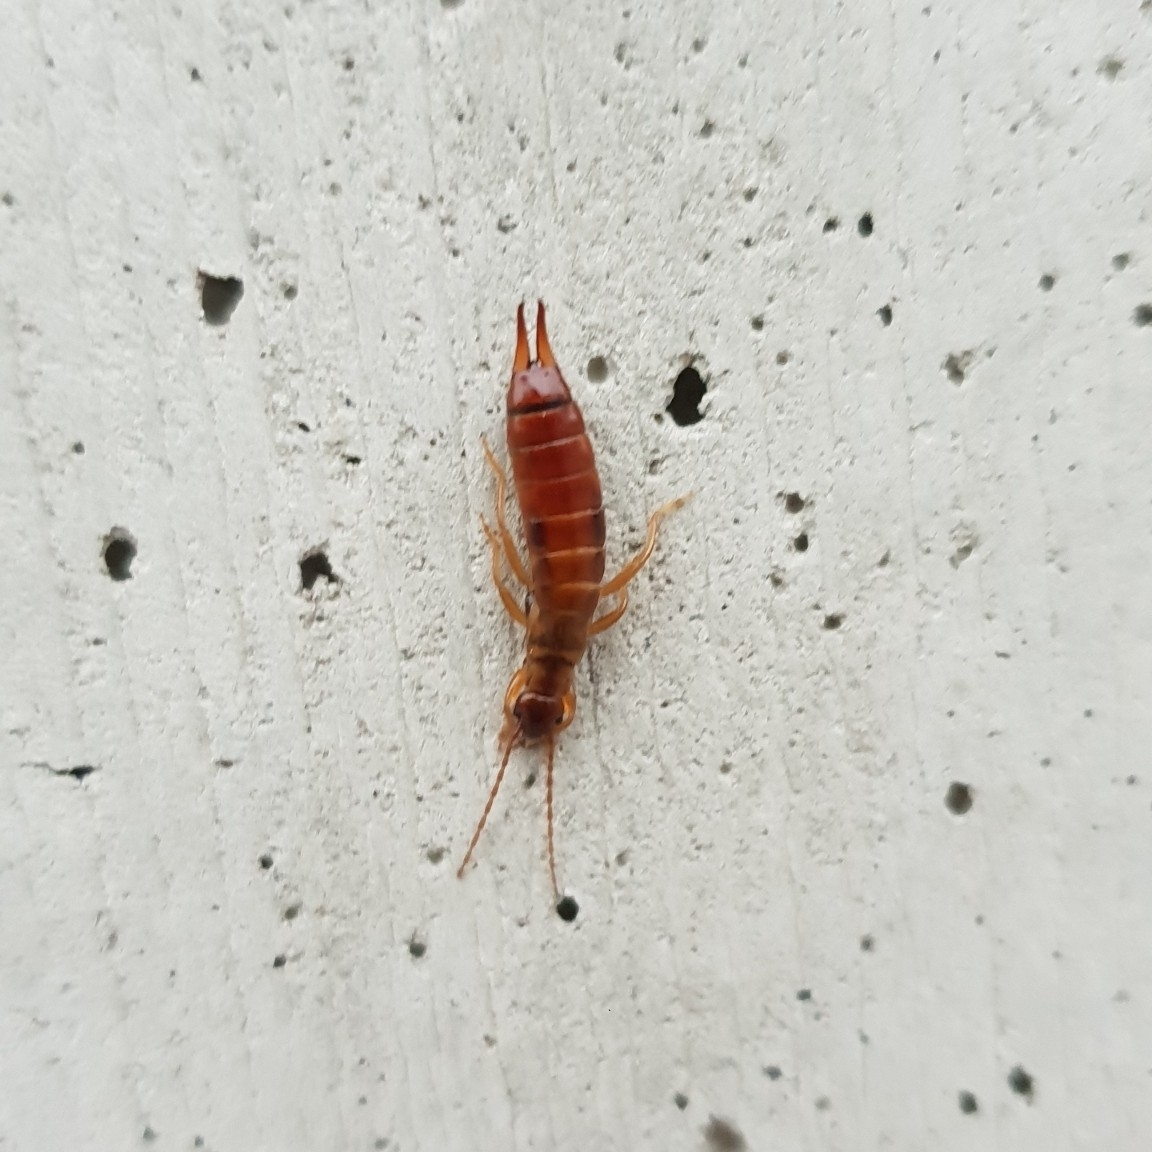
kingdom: Animalia
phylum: Arthropoda
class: Insecta
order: Dermaptera
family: Forficulidae
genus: Apterygida
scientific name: Apterygida albipennis
